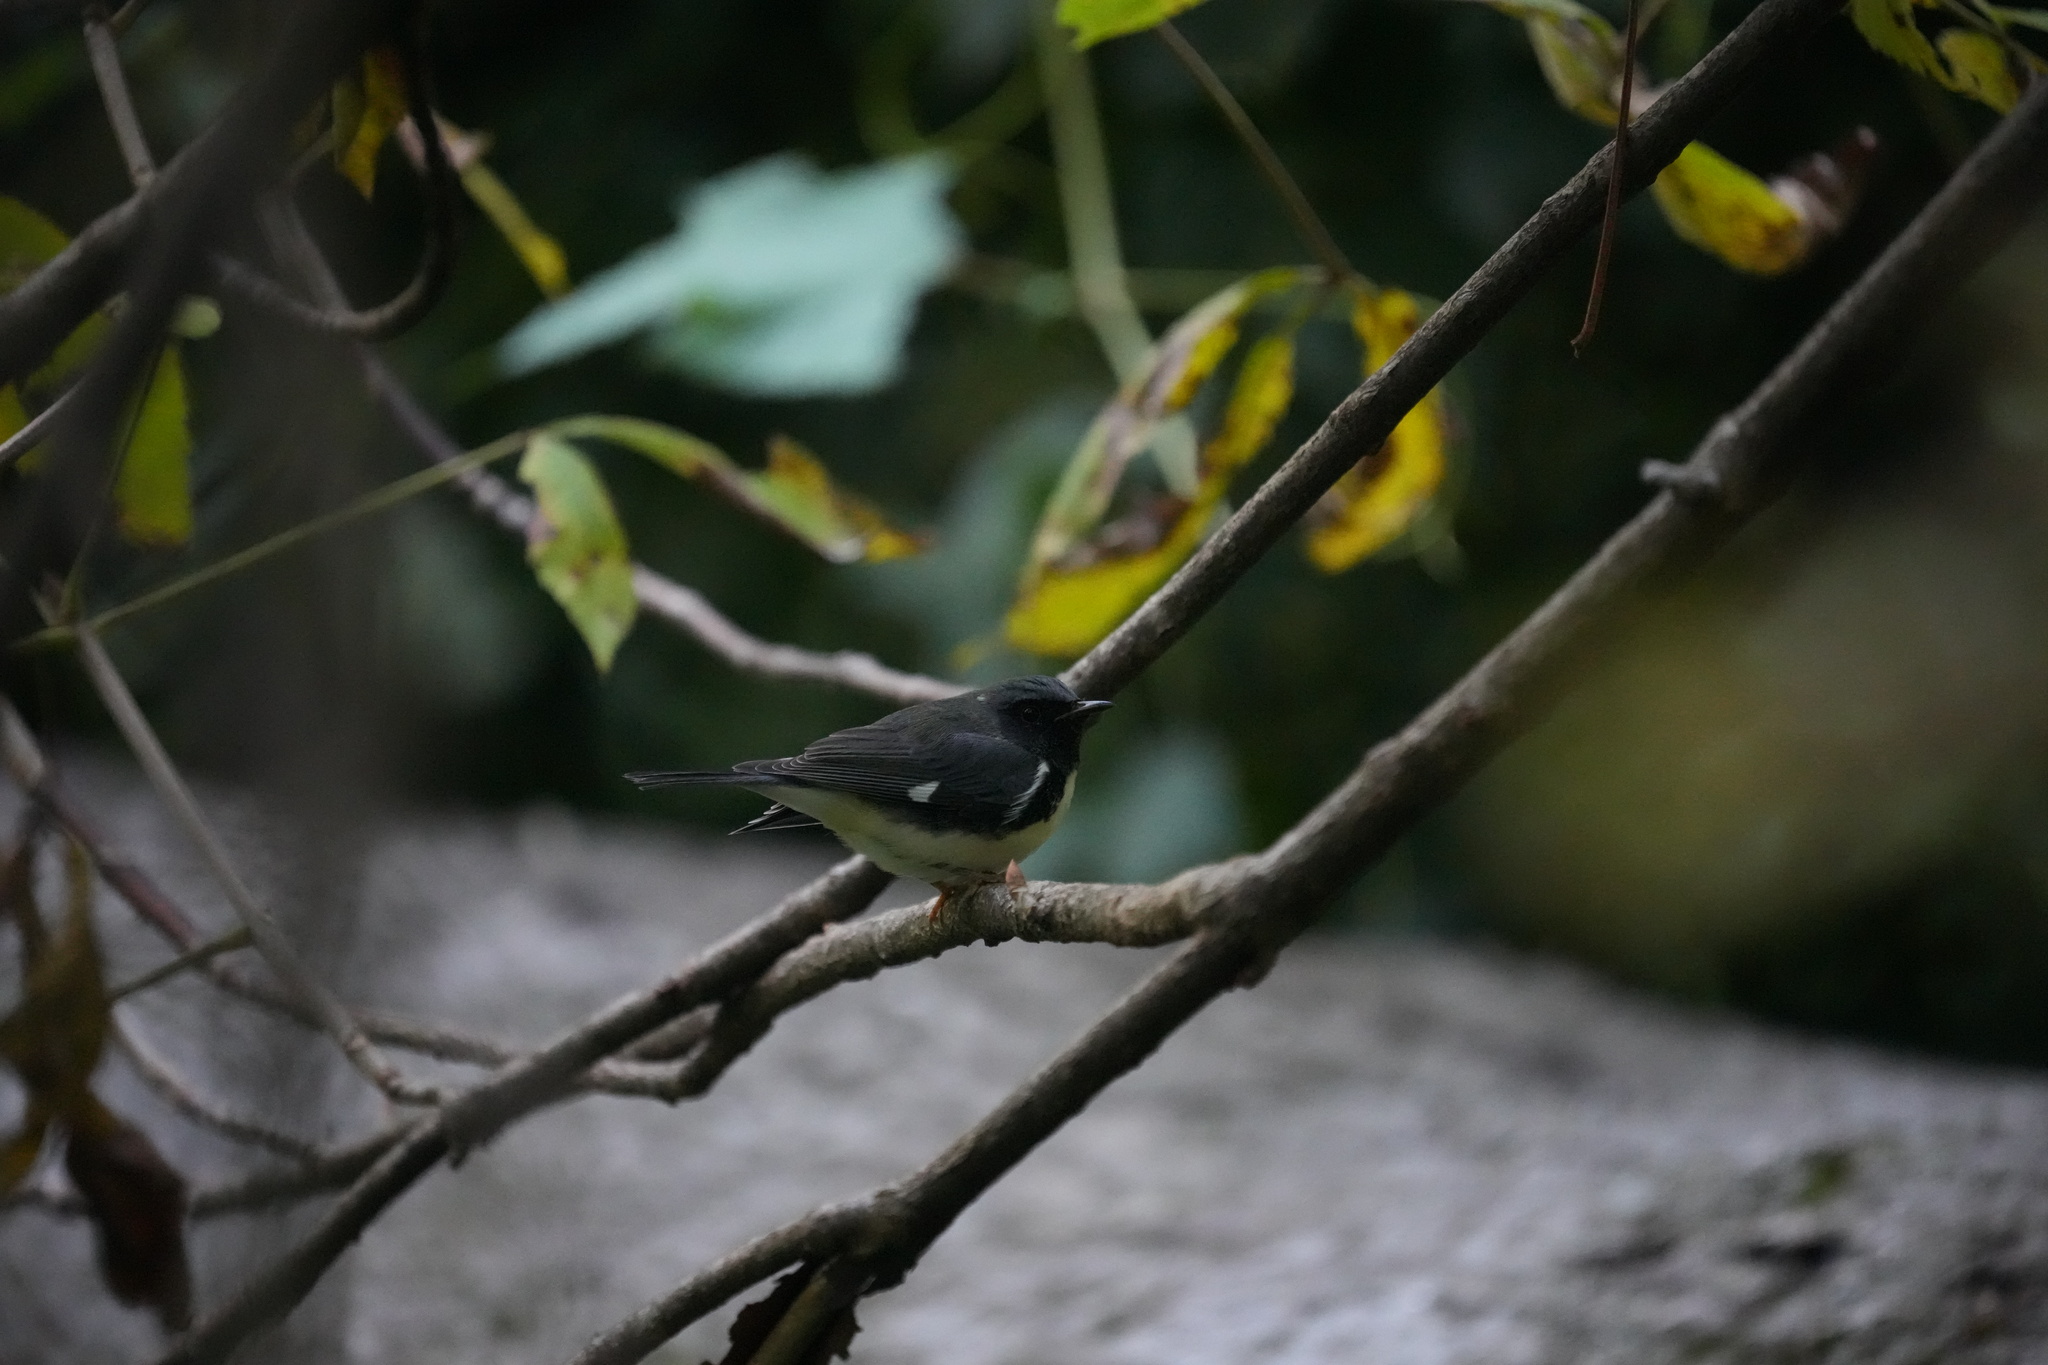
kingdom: Animalia
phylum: Chordata
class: Aves
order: Passeriformes
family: Parulidae
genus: Setophaga
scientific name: Setophaga caerulescens
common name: Black-throated blue warbler
